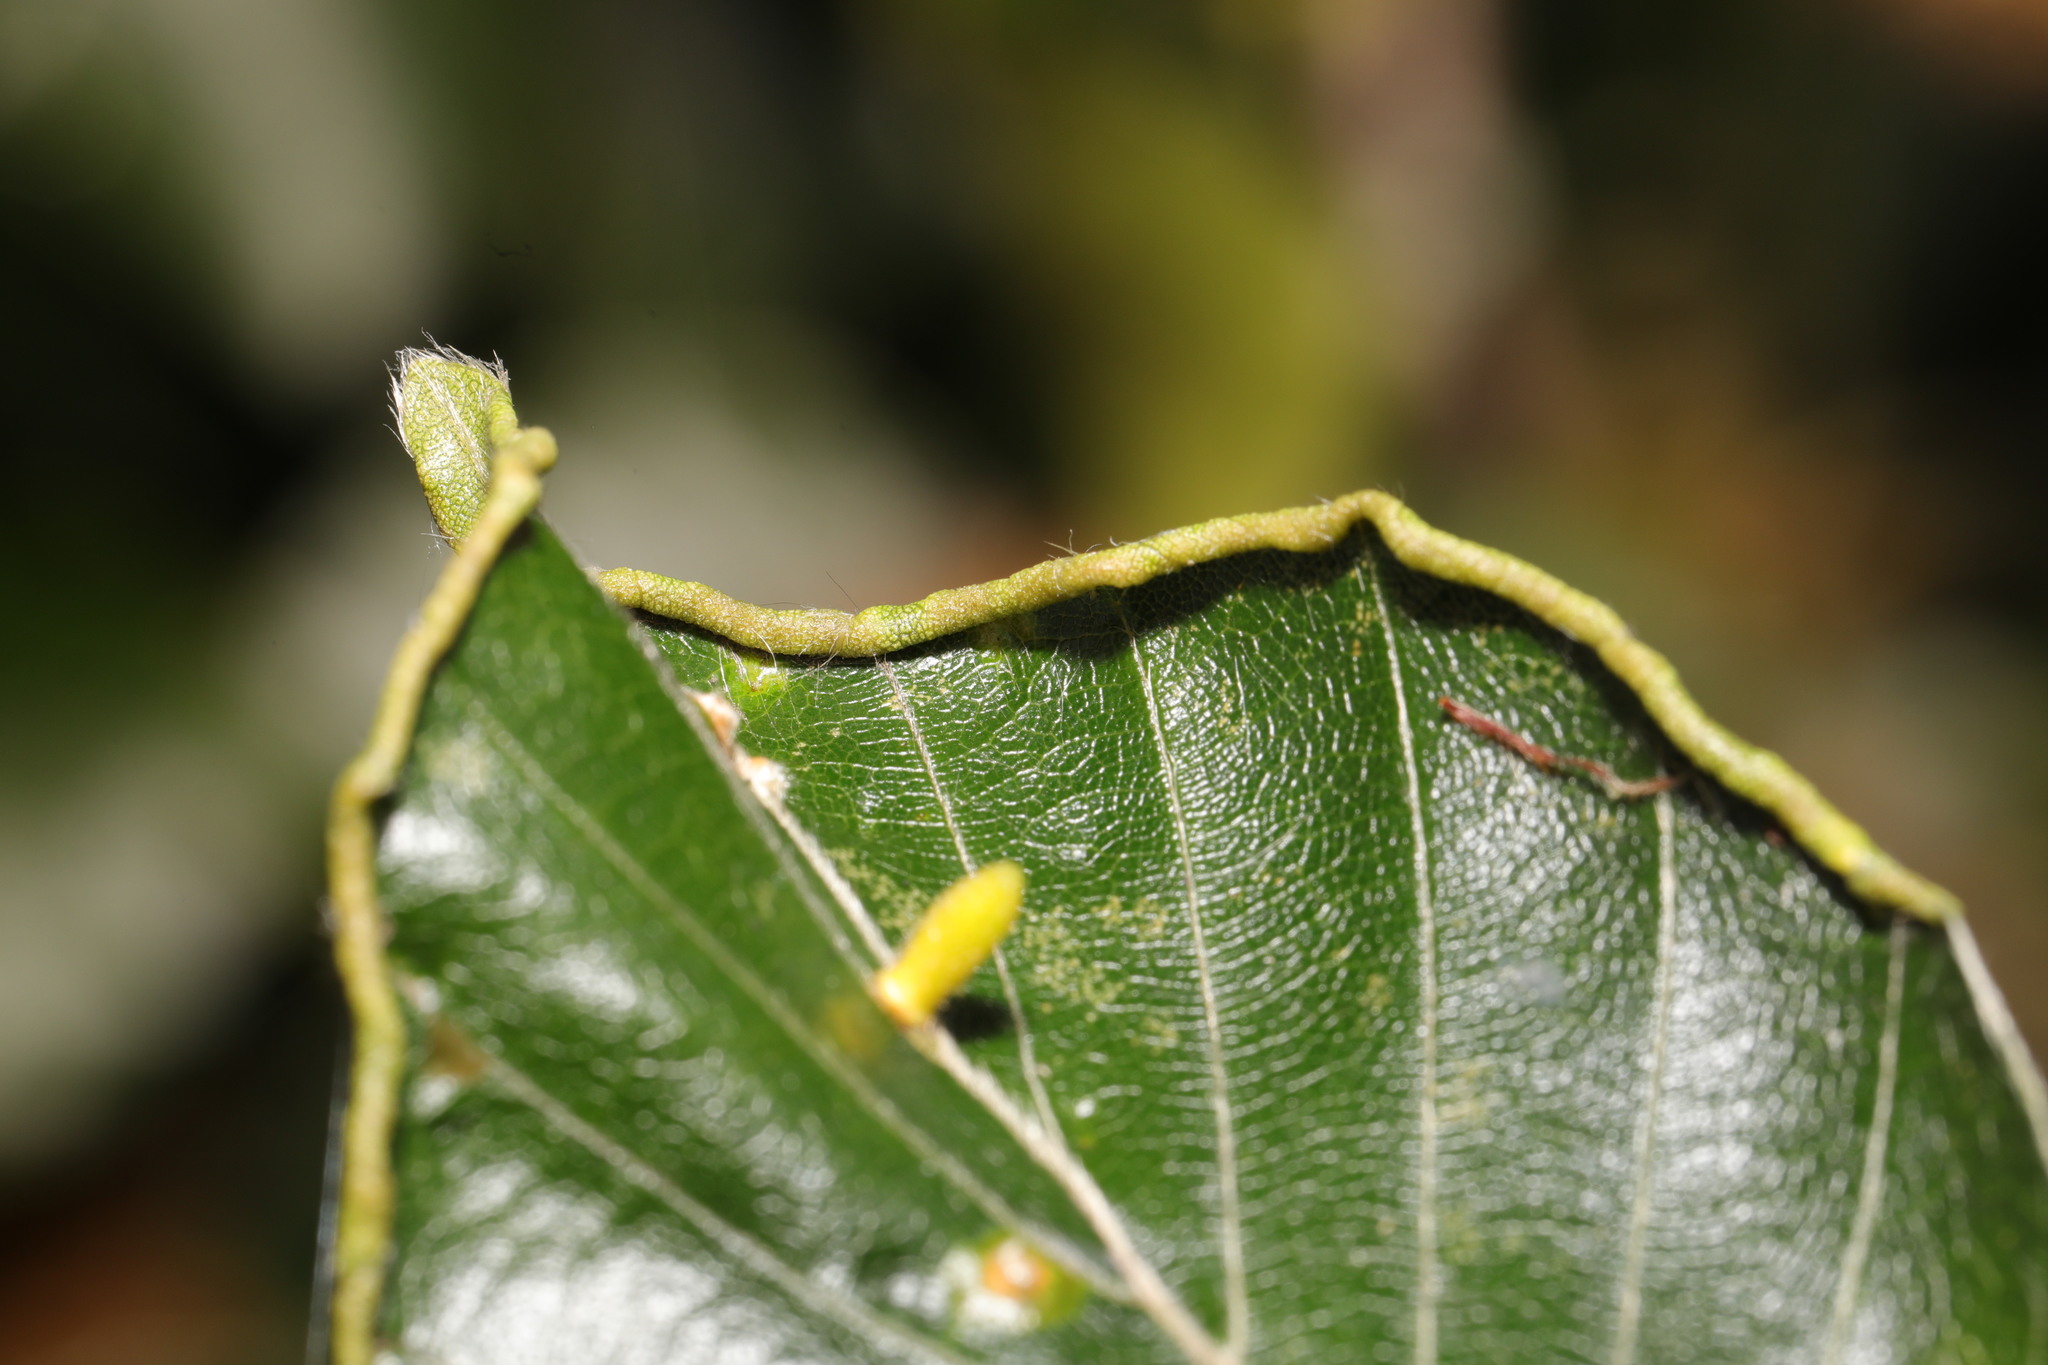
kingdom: Animalia
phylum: Arthropoda
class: Arachnida
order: Trombidiformes
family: Eriophyidae
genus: Acalitus
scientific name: Acalitus stenaspis
